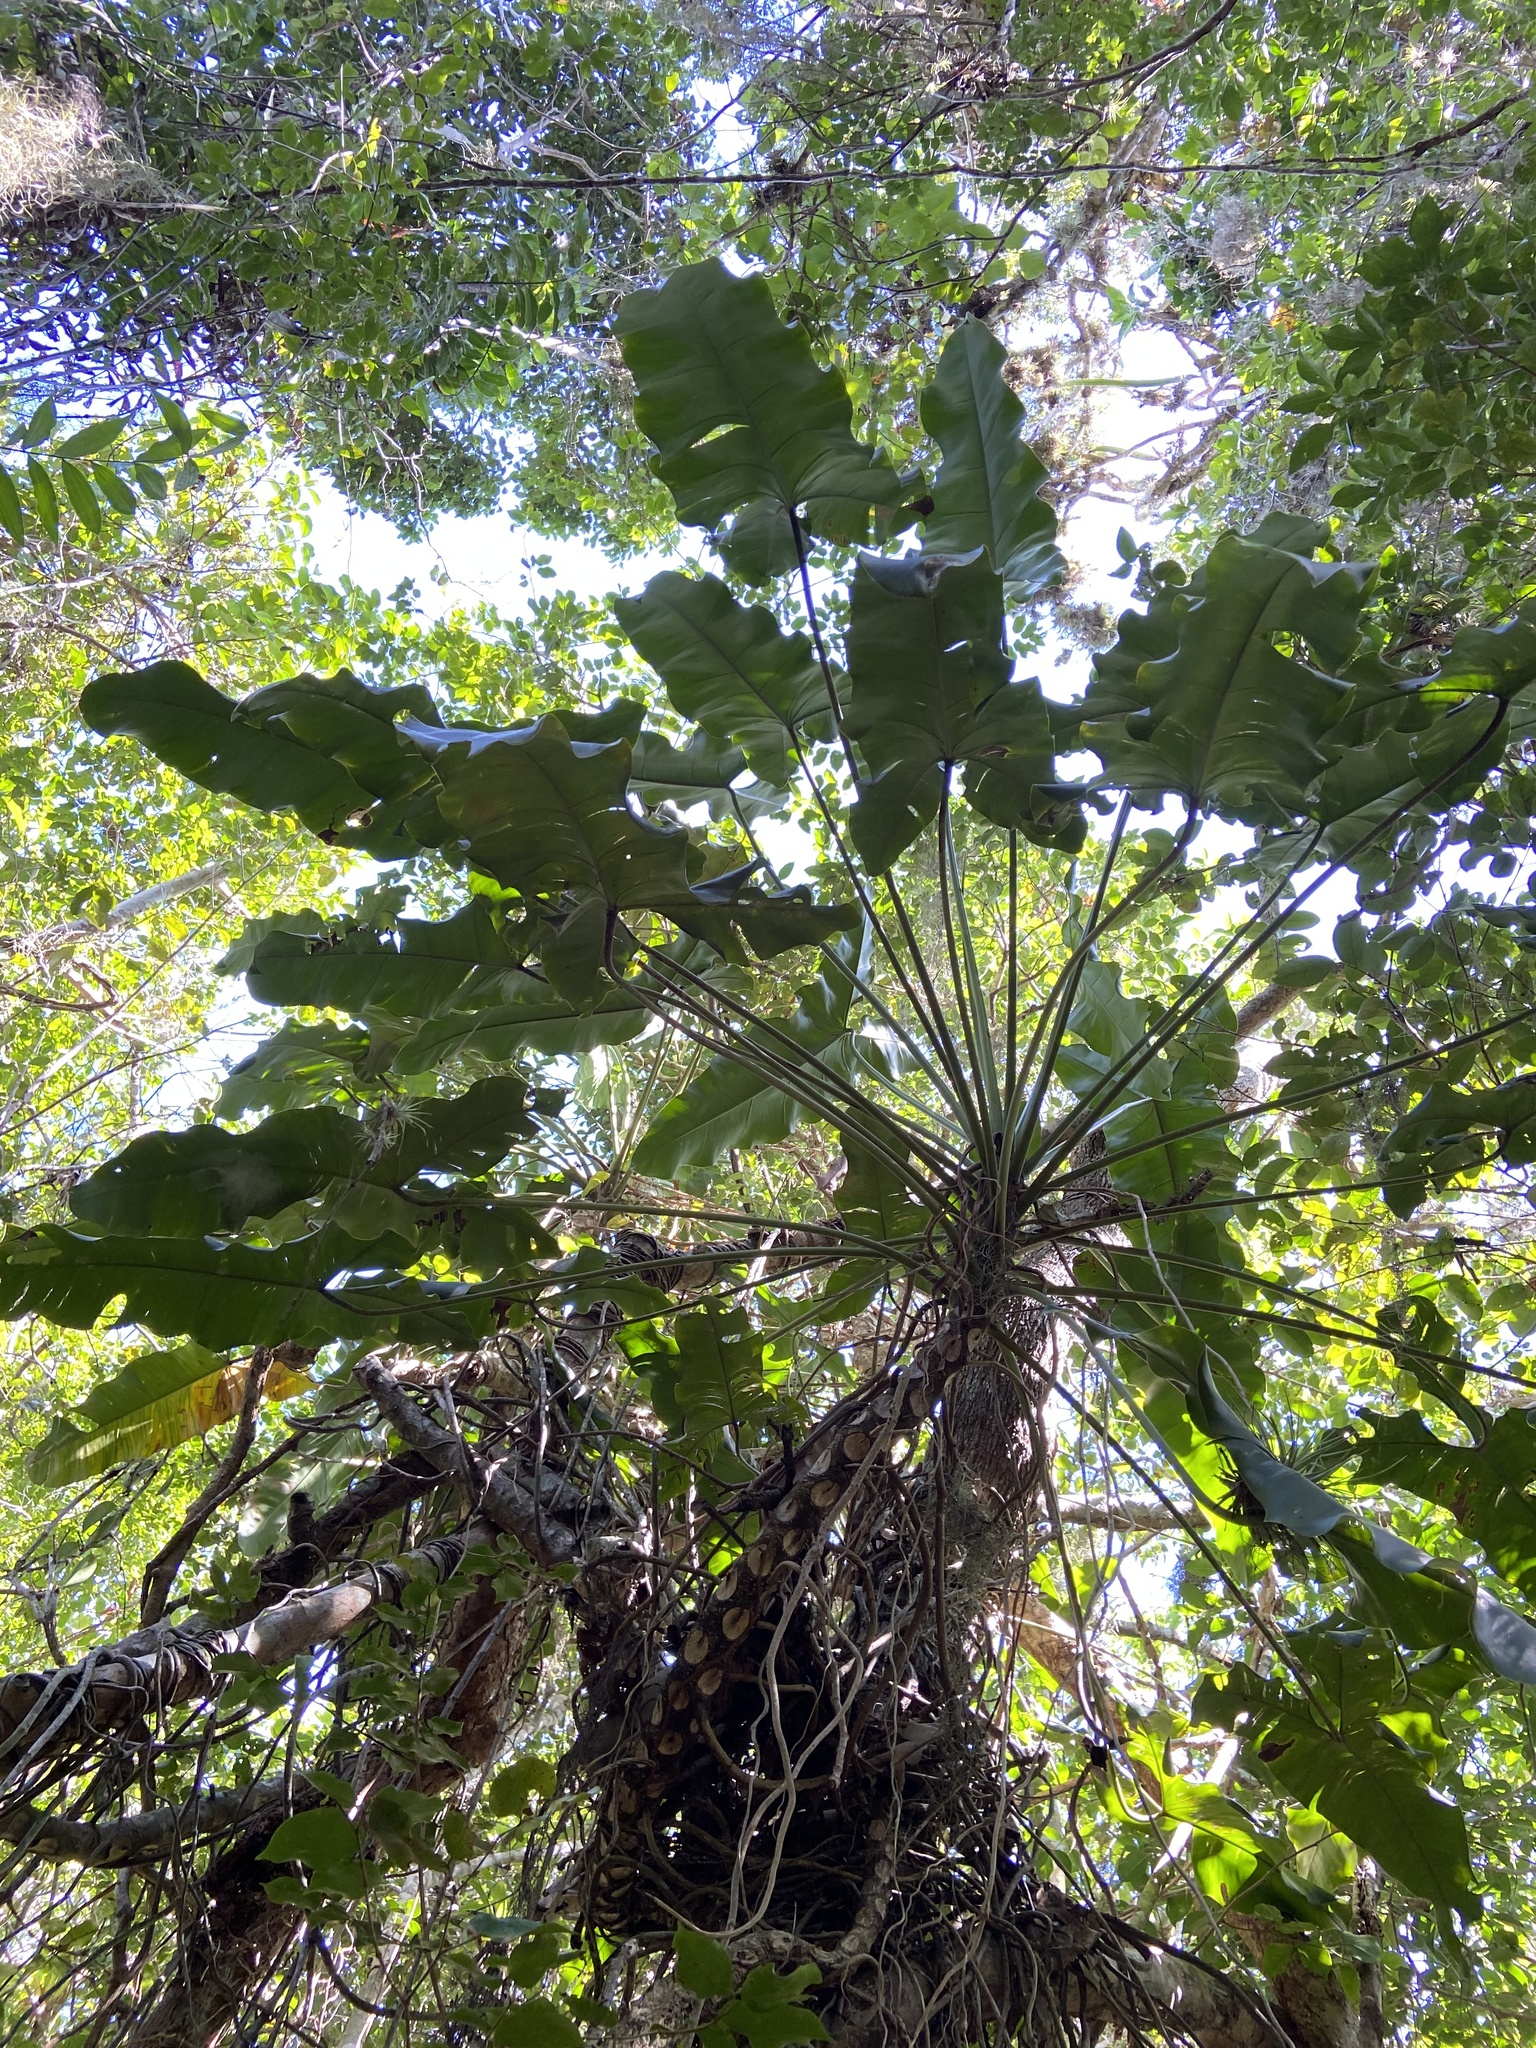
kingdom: Plantae
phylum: Tracheophyta
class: Liliopsida
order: Alismatales
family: Araceae
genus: Thaumatophyllum
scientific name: Thaumatophyllum stenolobum
